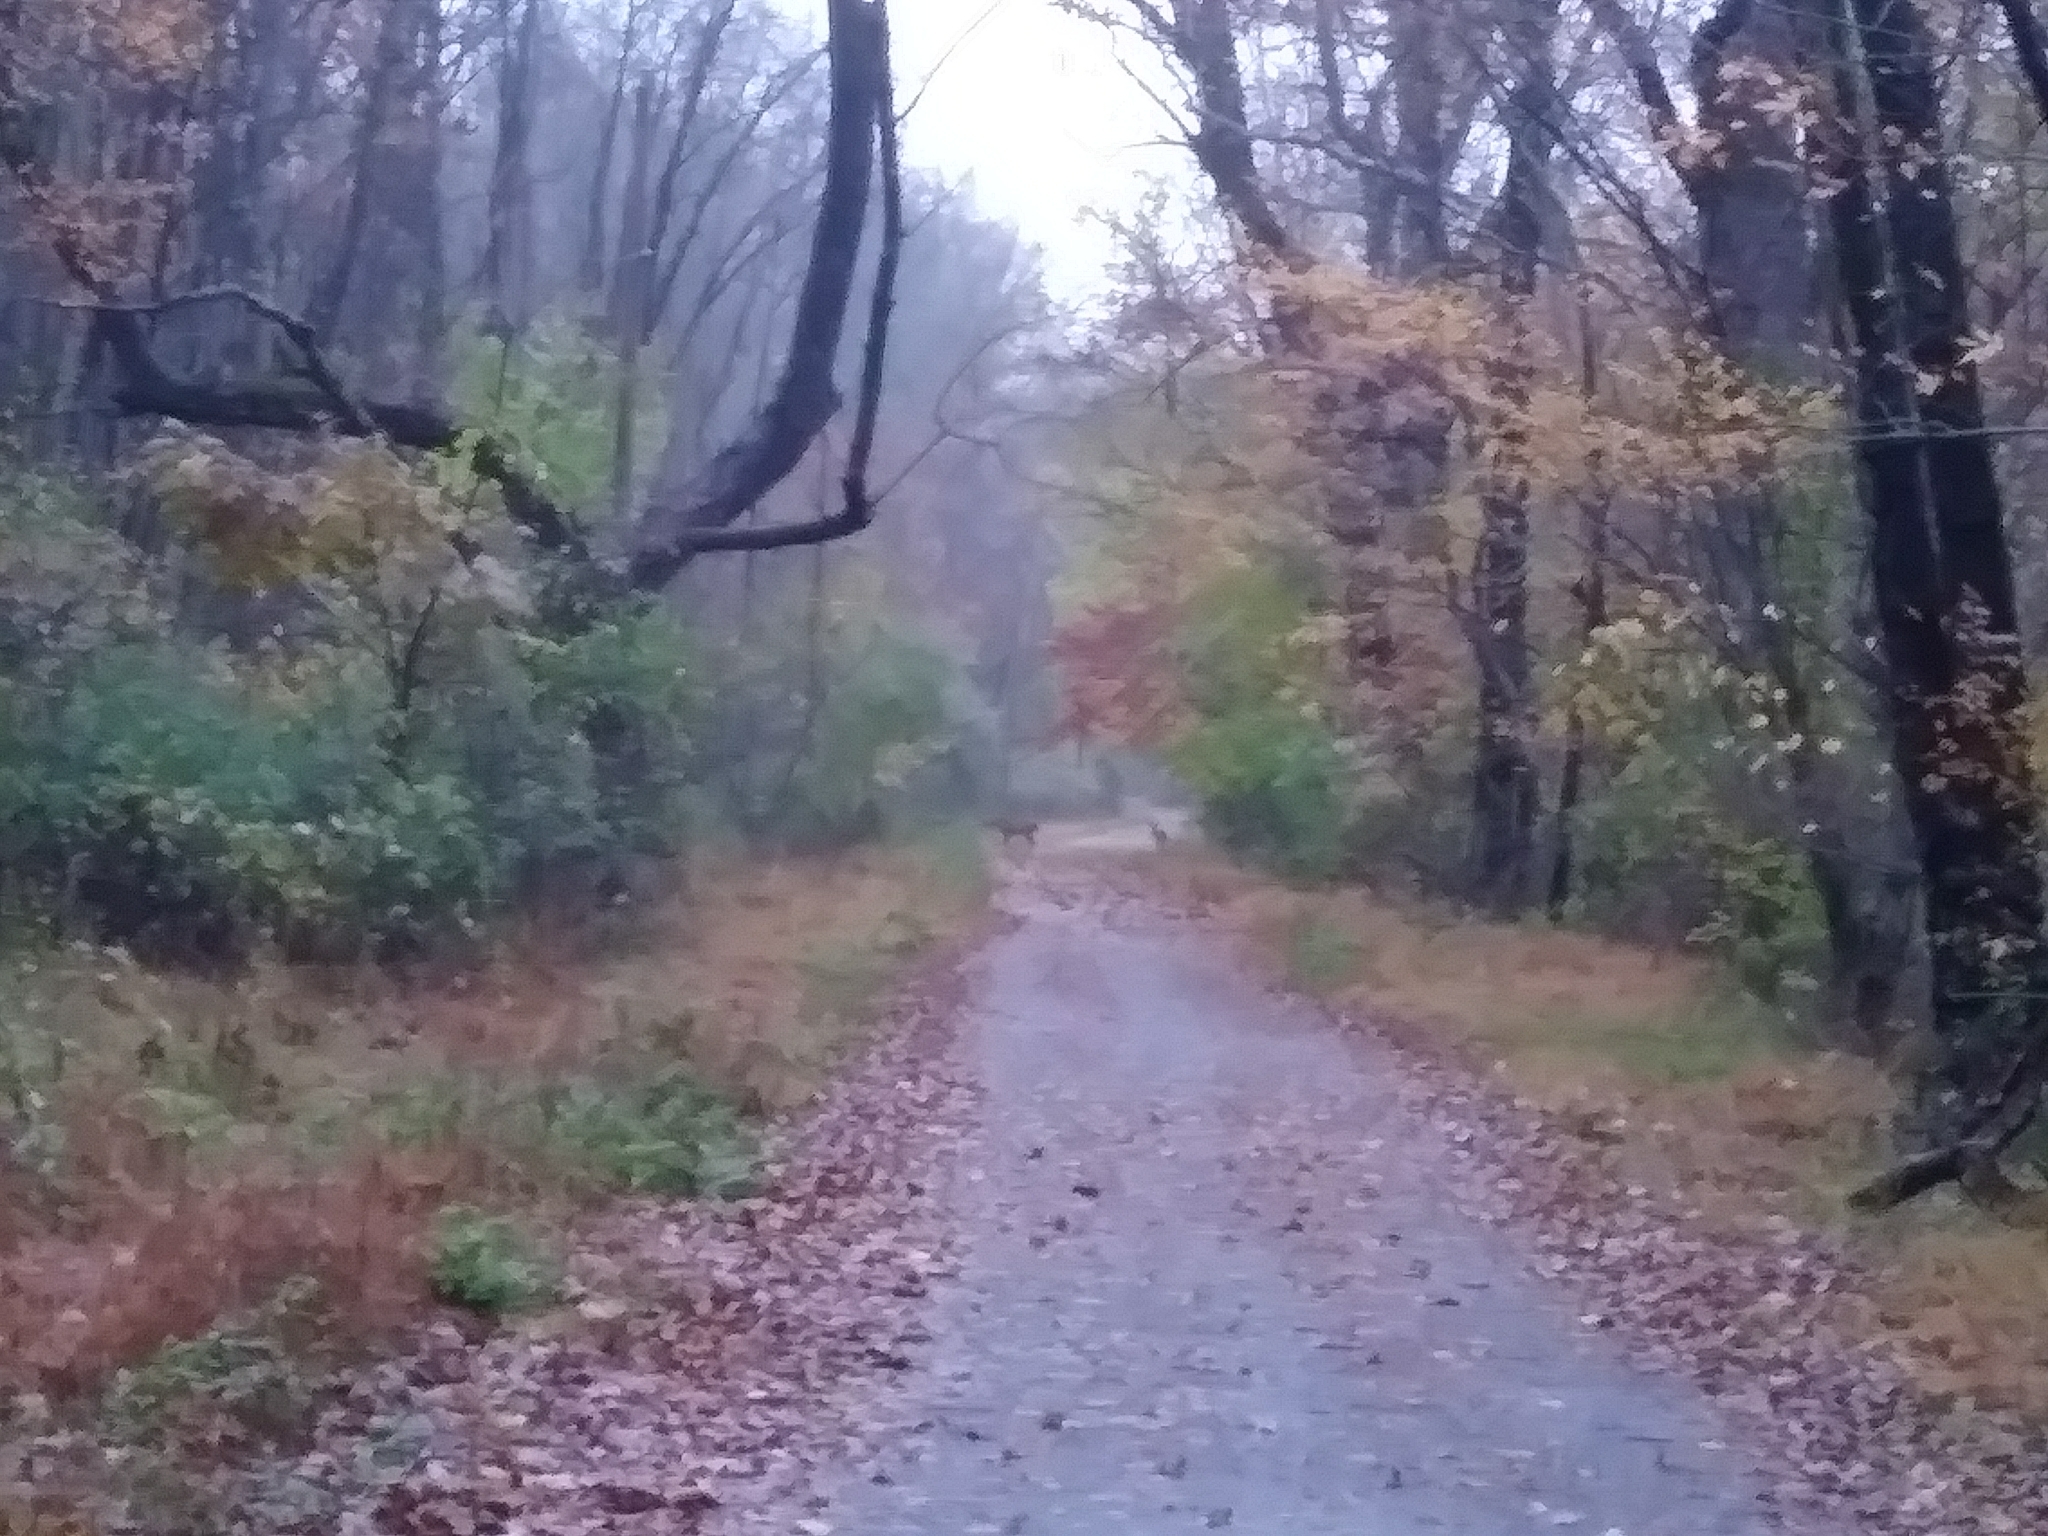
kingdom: Animalia
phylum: Chordata
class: Mammalia
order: Artiodactyla
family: Cervidae
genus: Odocoileus
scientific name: Odocoileus virginianus
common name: White-tailed deer
